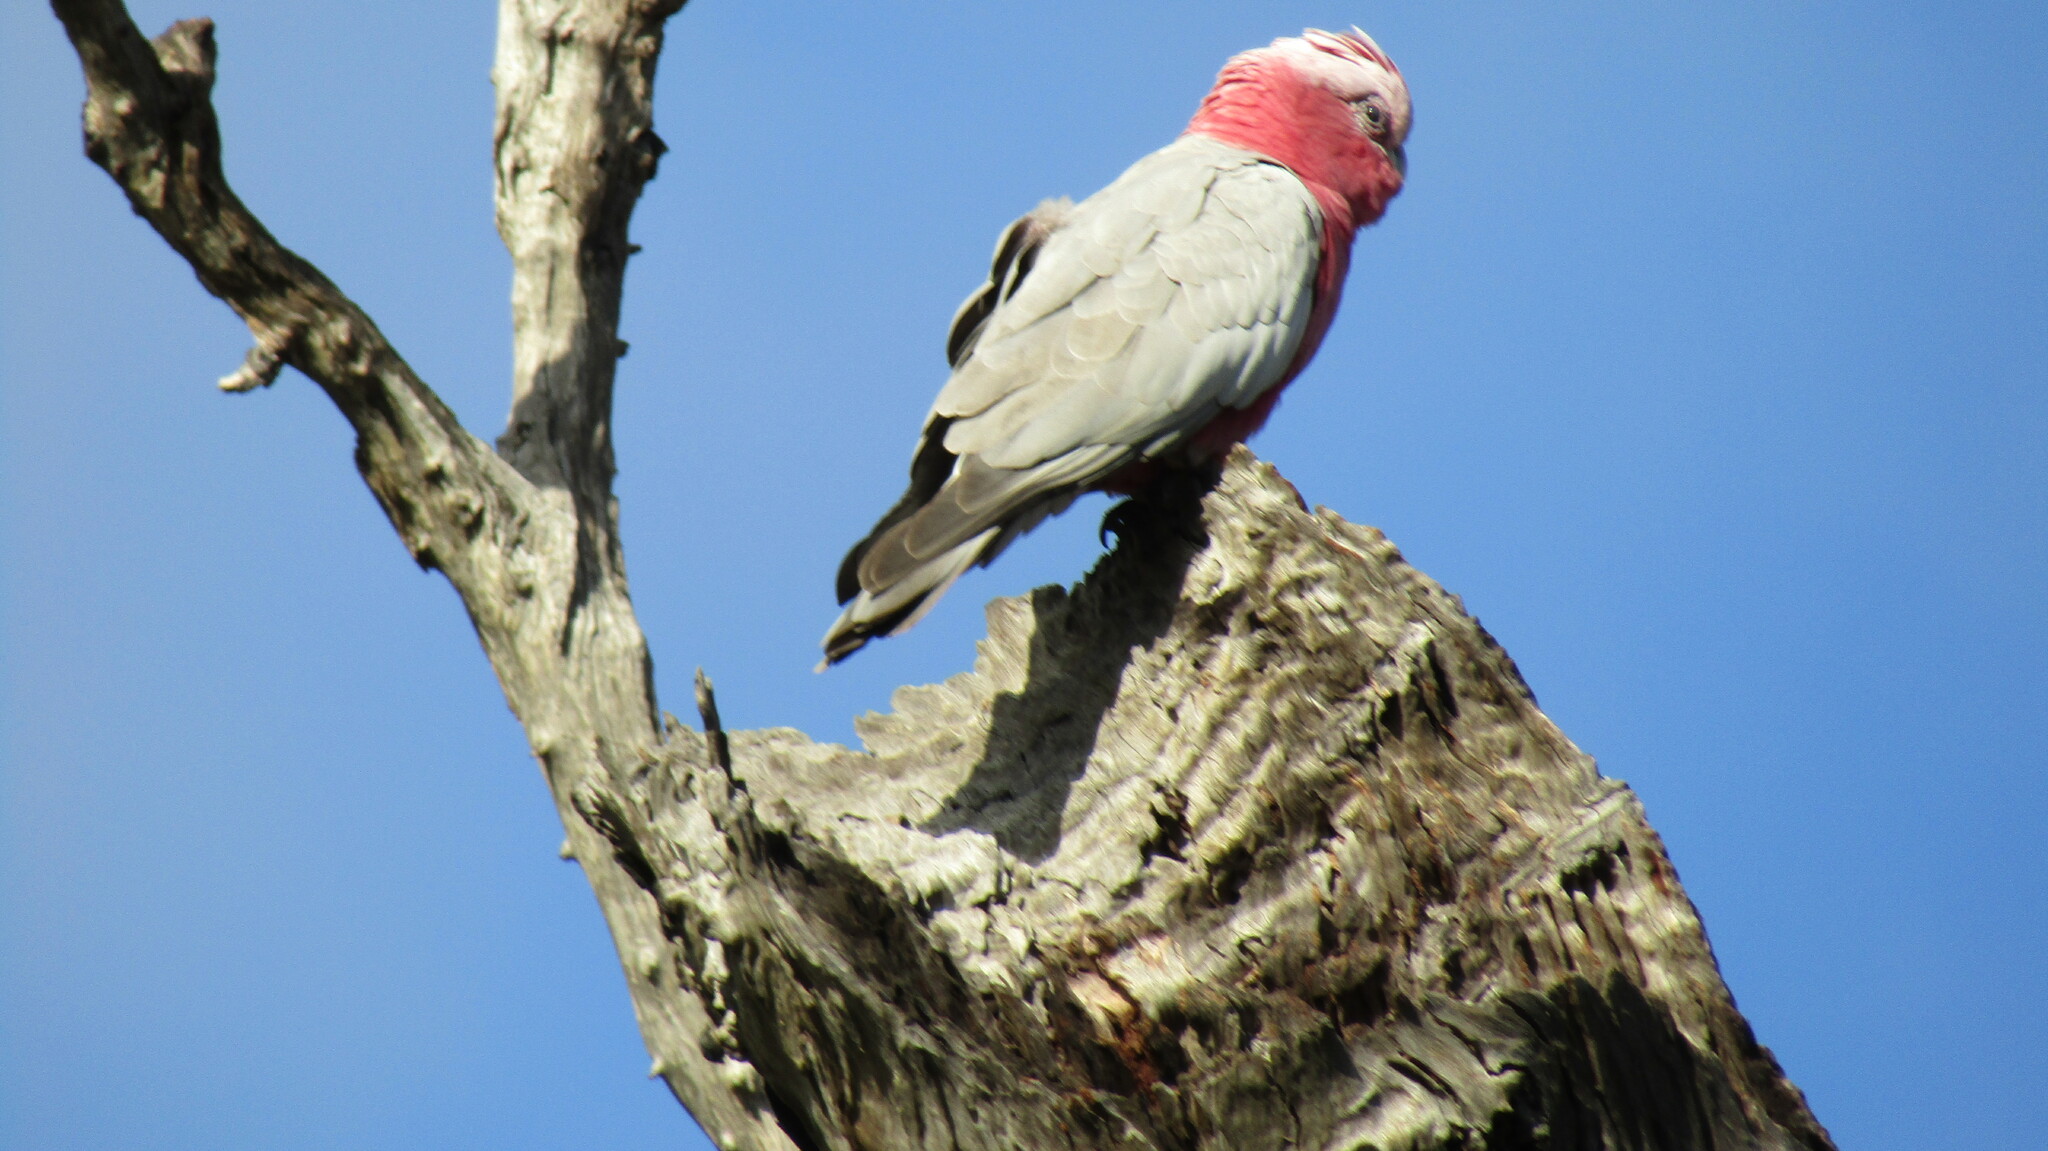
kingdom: Animalia
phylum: Chordata
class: Aves
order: Psittaciformes
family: Psittacidae
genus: Eolophus
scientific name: Eolophus roseicapilla
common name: Galah
